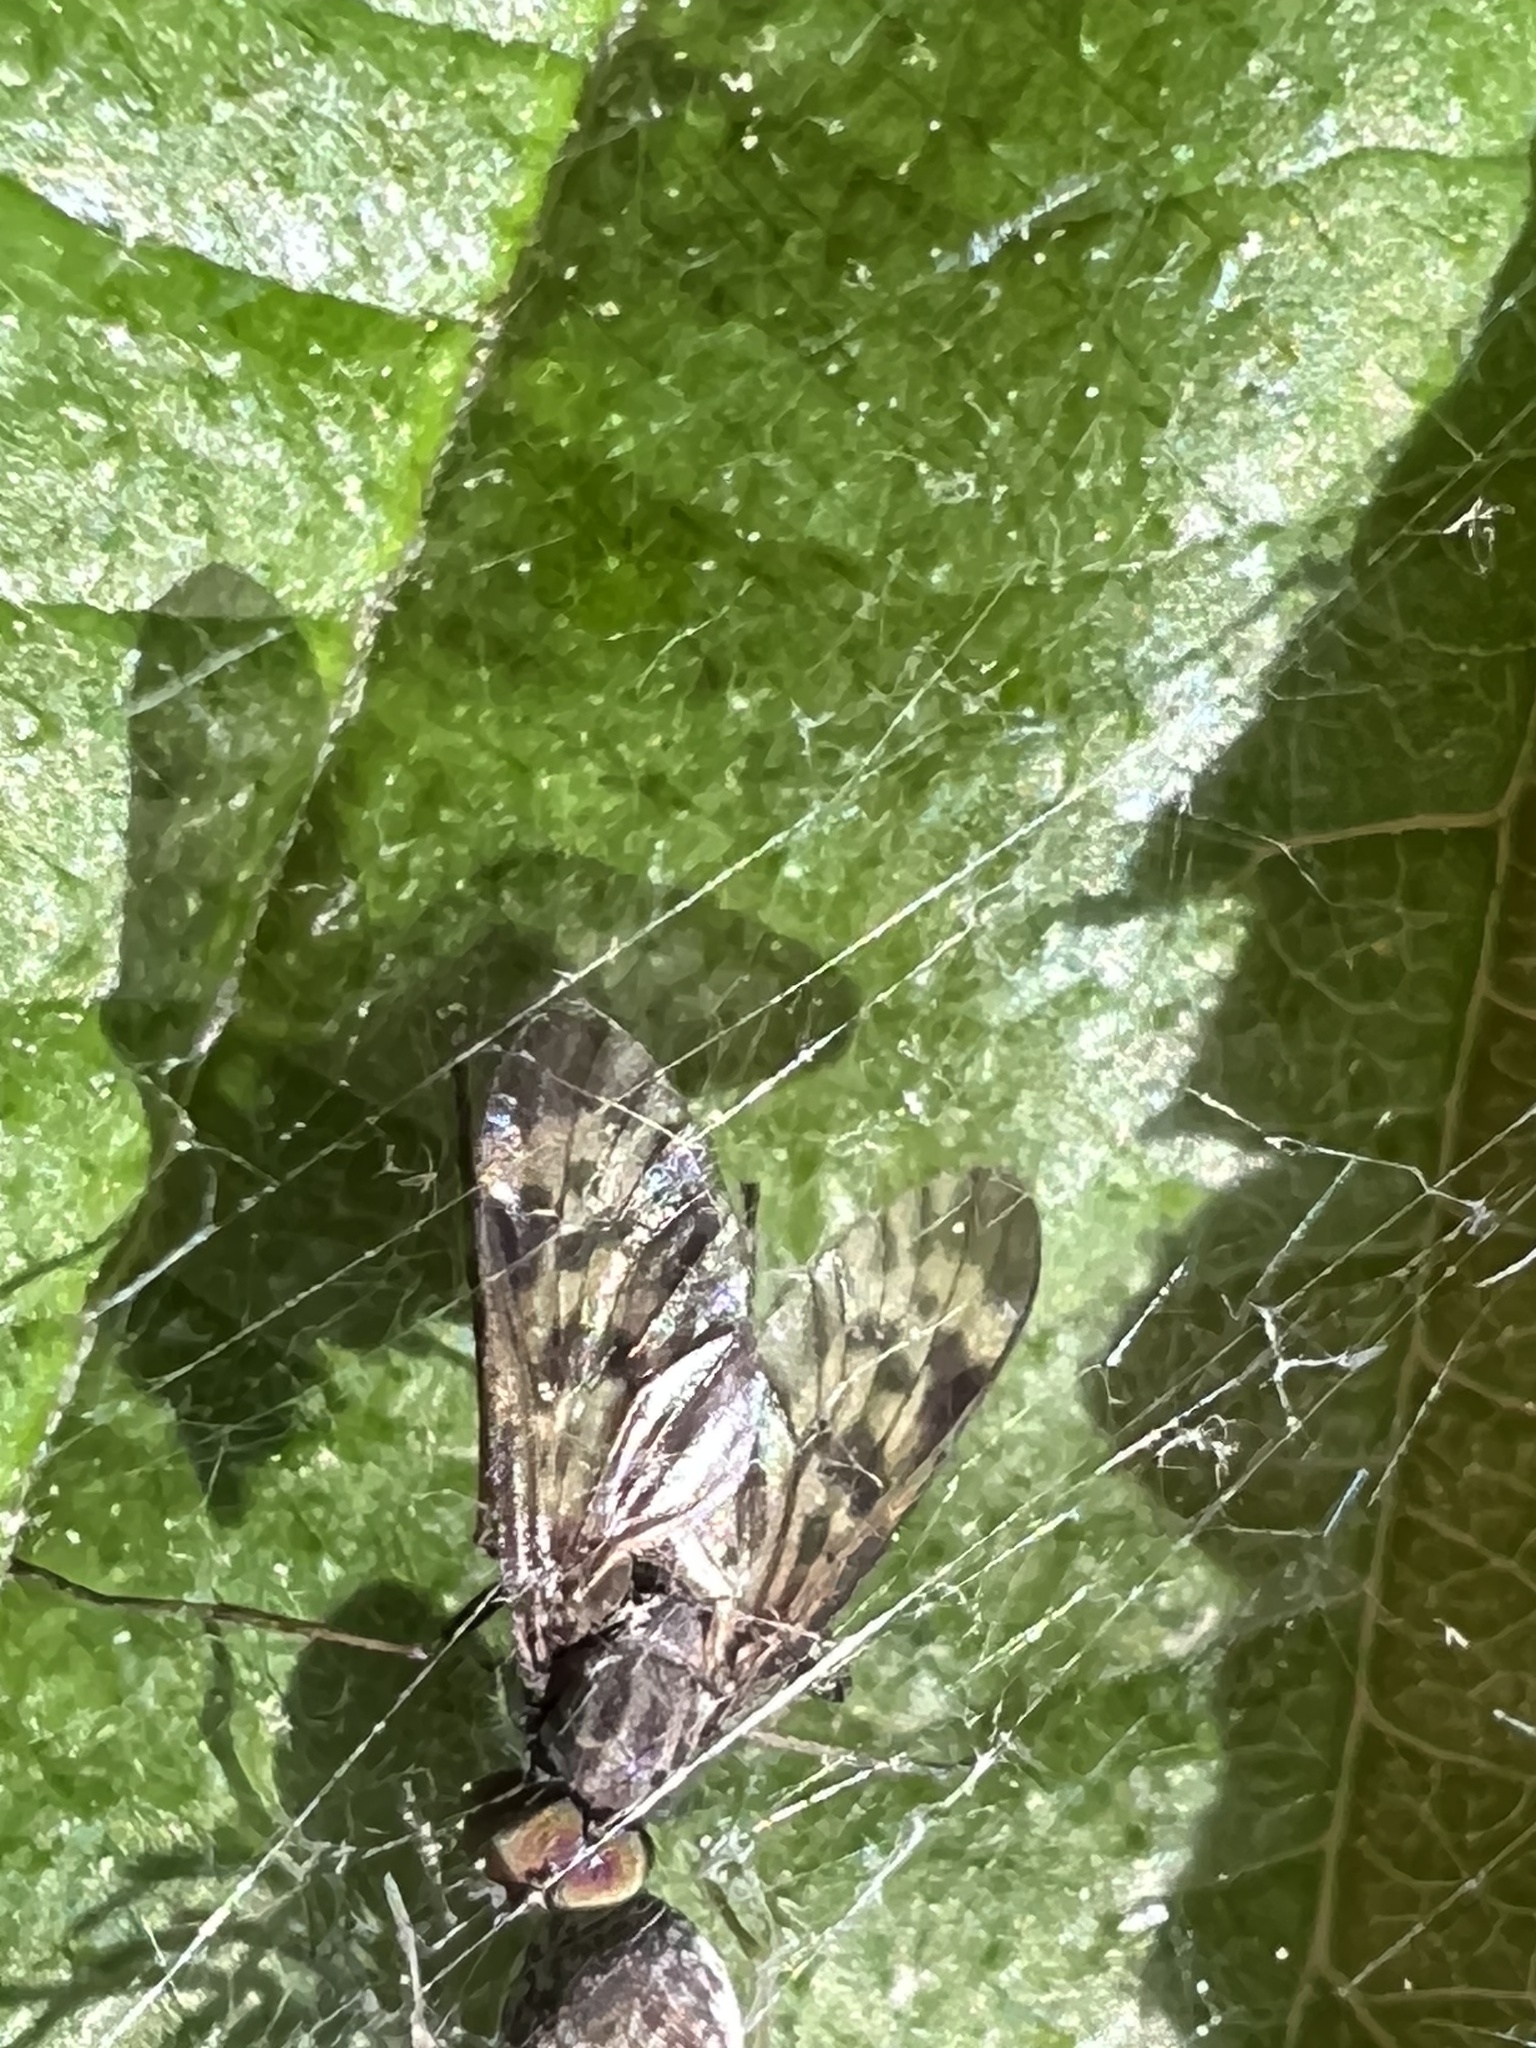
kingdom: Animalia
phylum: Arthropoda
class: Insecta
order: Diptera
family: Rhagionidae
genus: Rhagio
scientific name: Rhagio punctipennis
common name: Lesser variegated snipe fly
